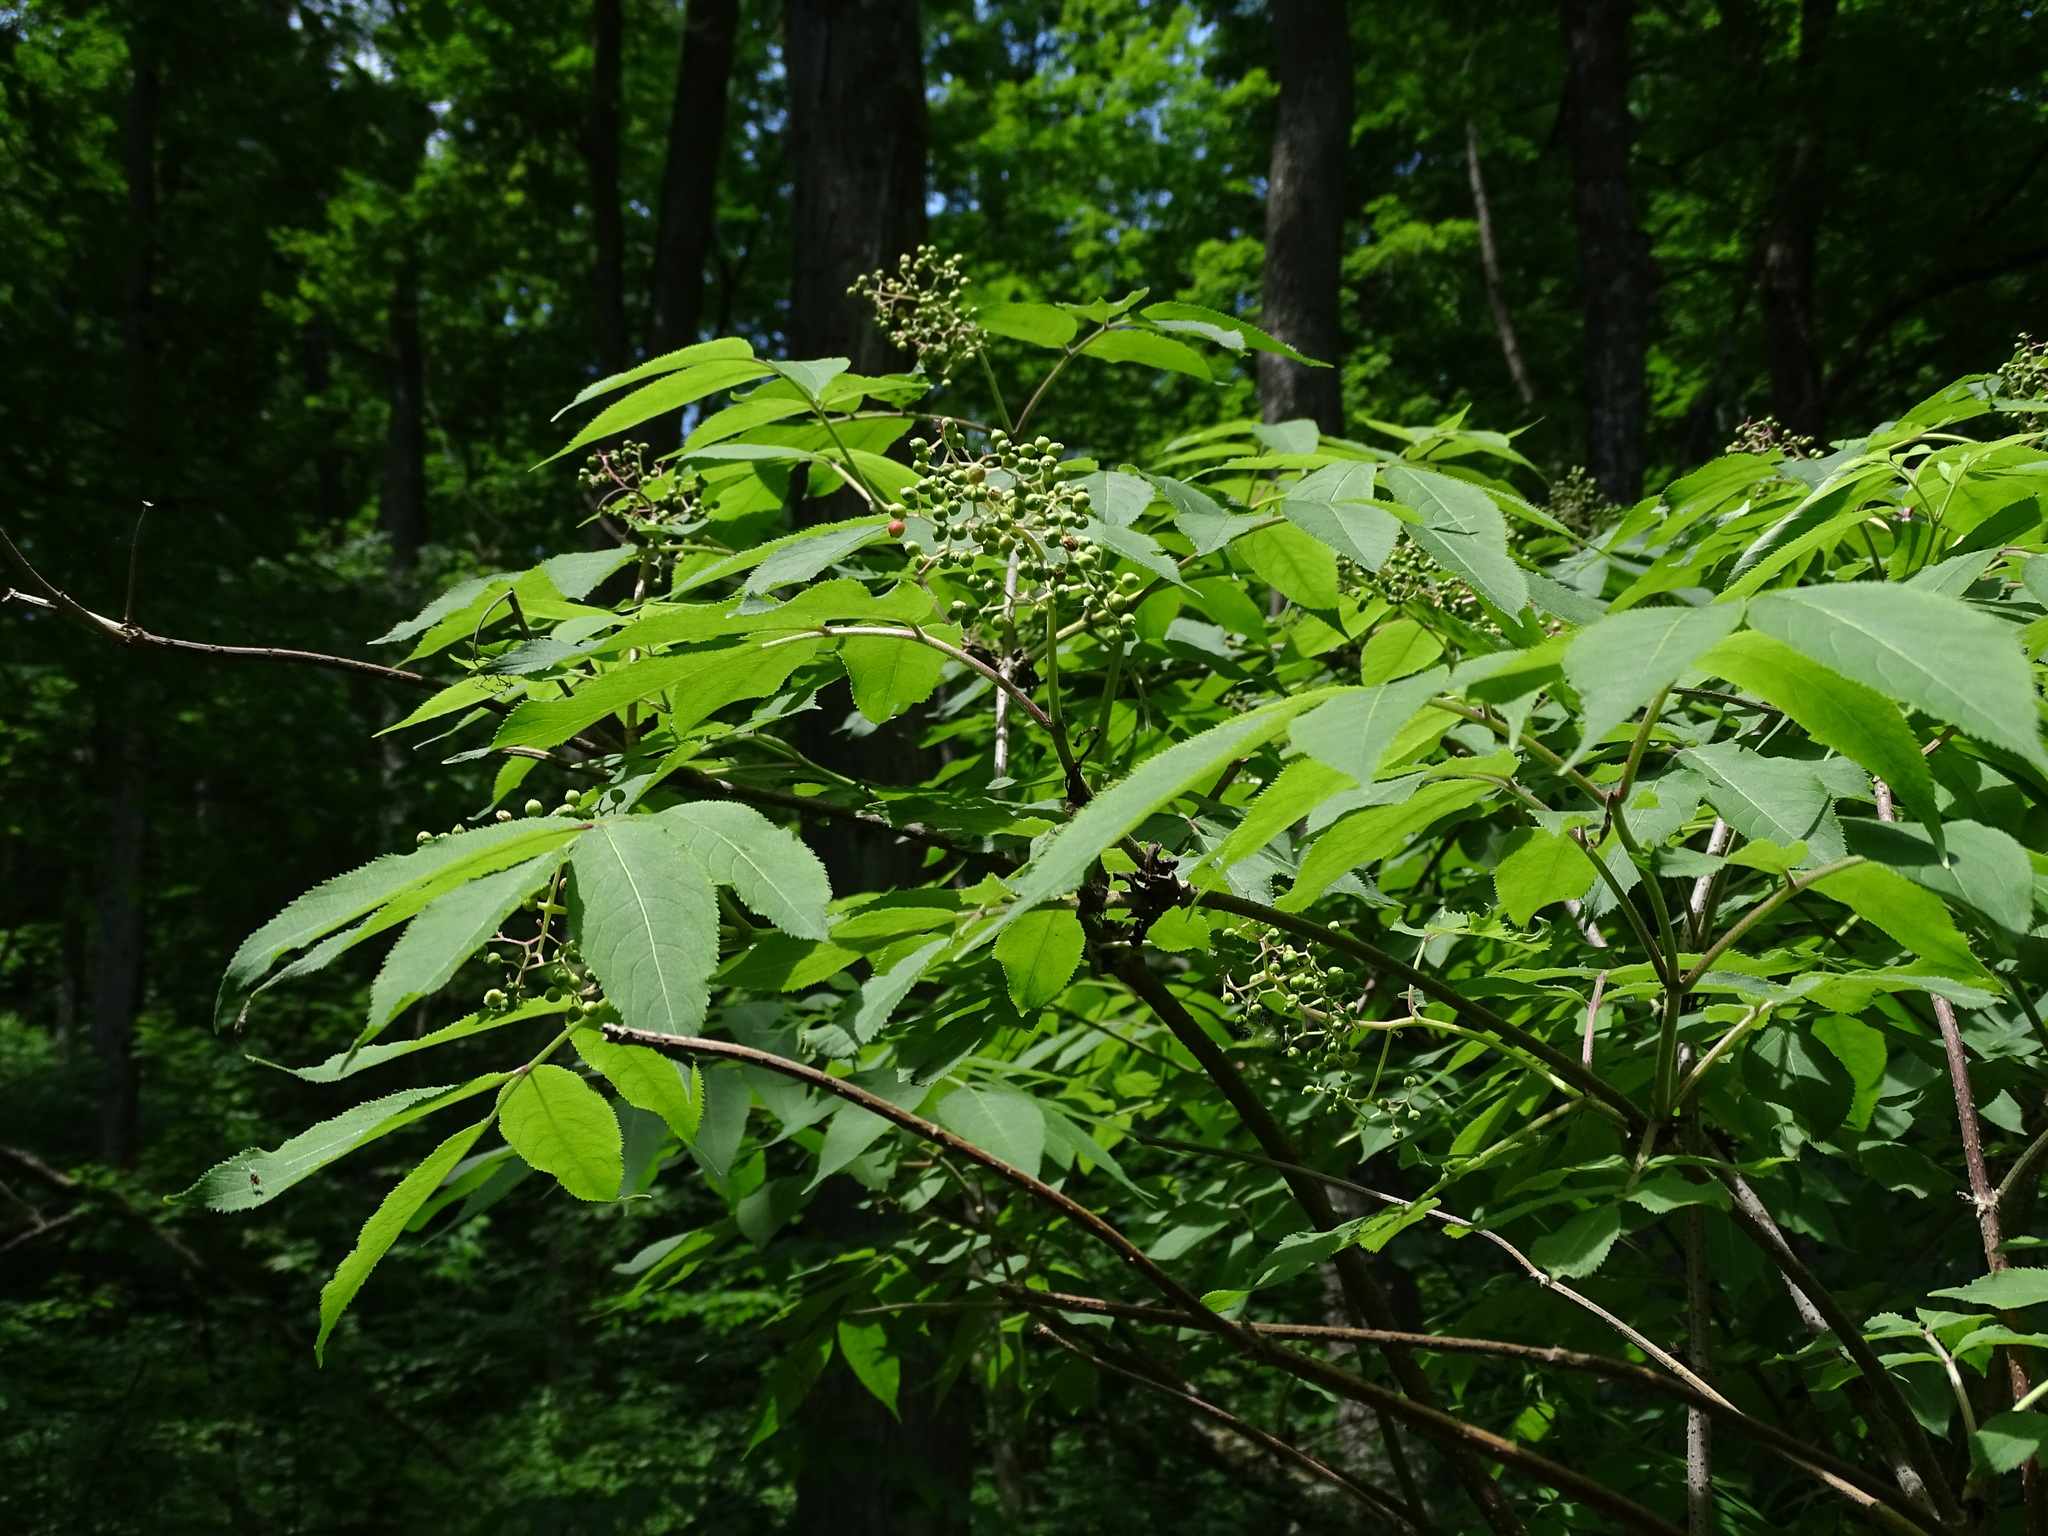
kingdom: Plantae
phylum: Tracheophyta
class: Magnoliopsida
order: Dipsacales
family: Viburnaceae
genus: Sambucus
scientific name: Sambucus racemosa
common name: Red-berried elder
